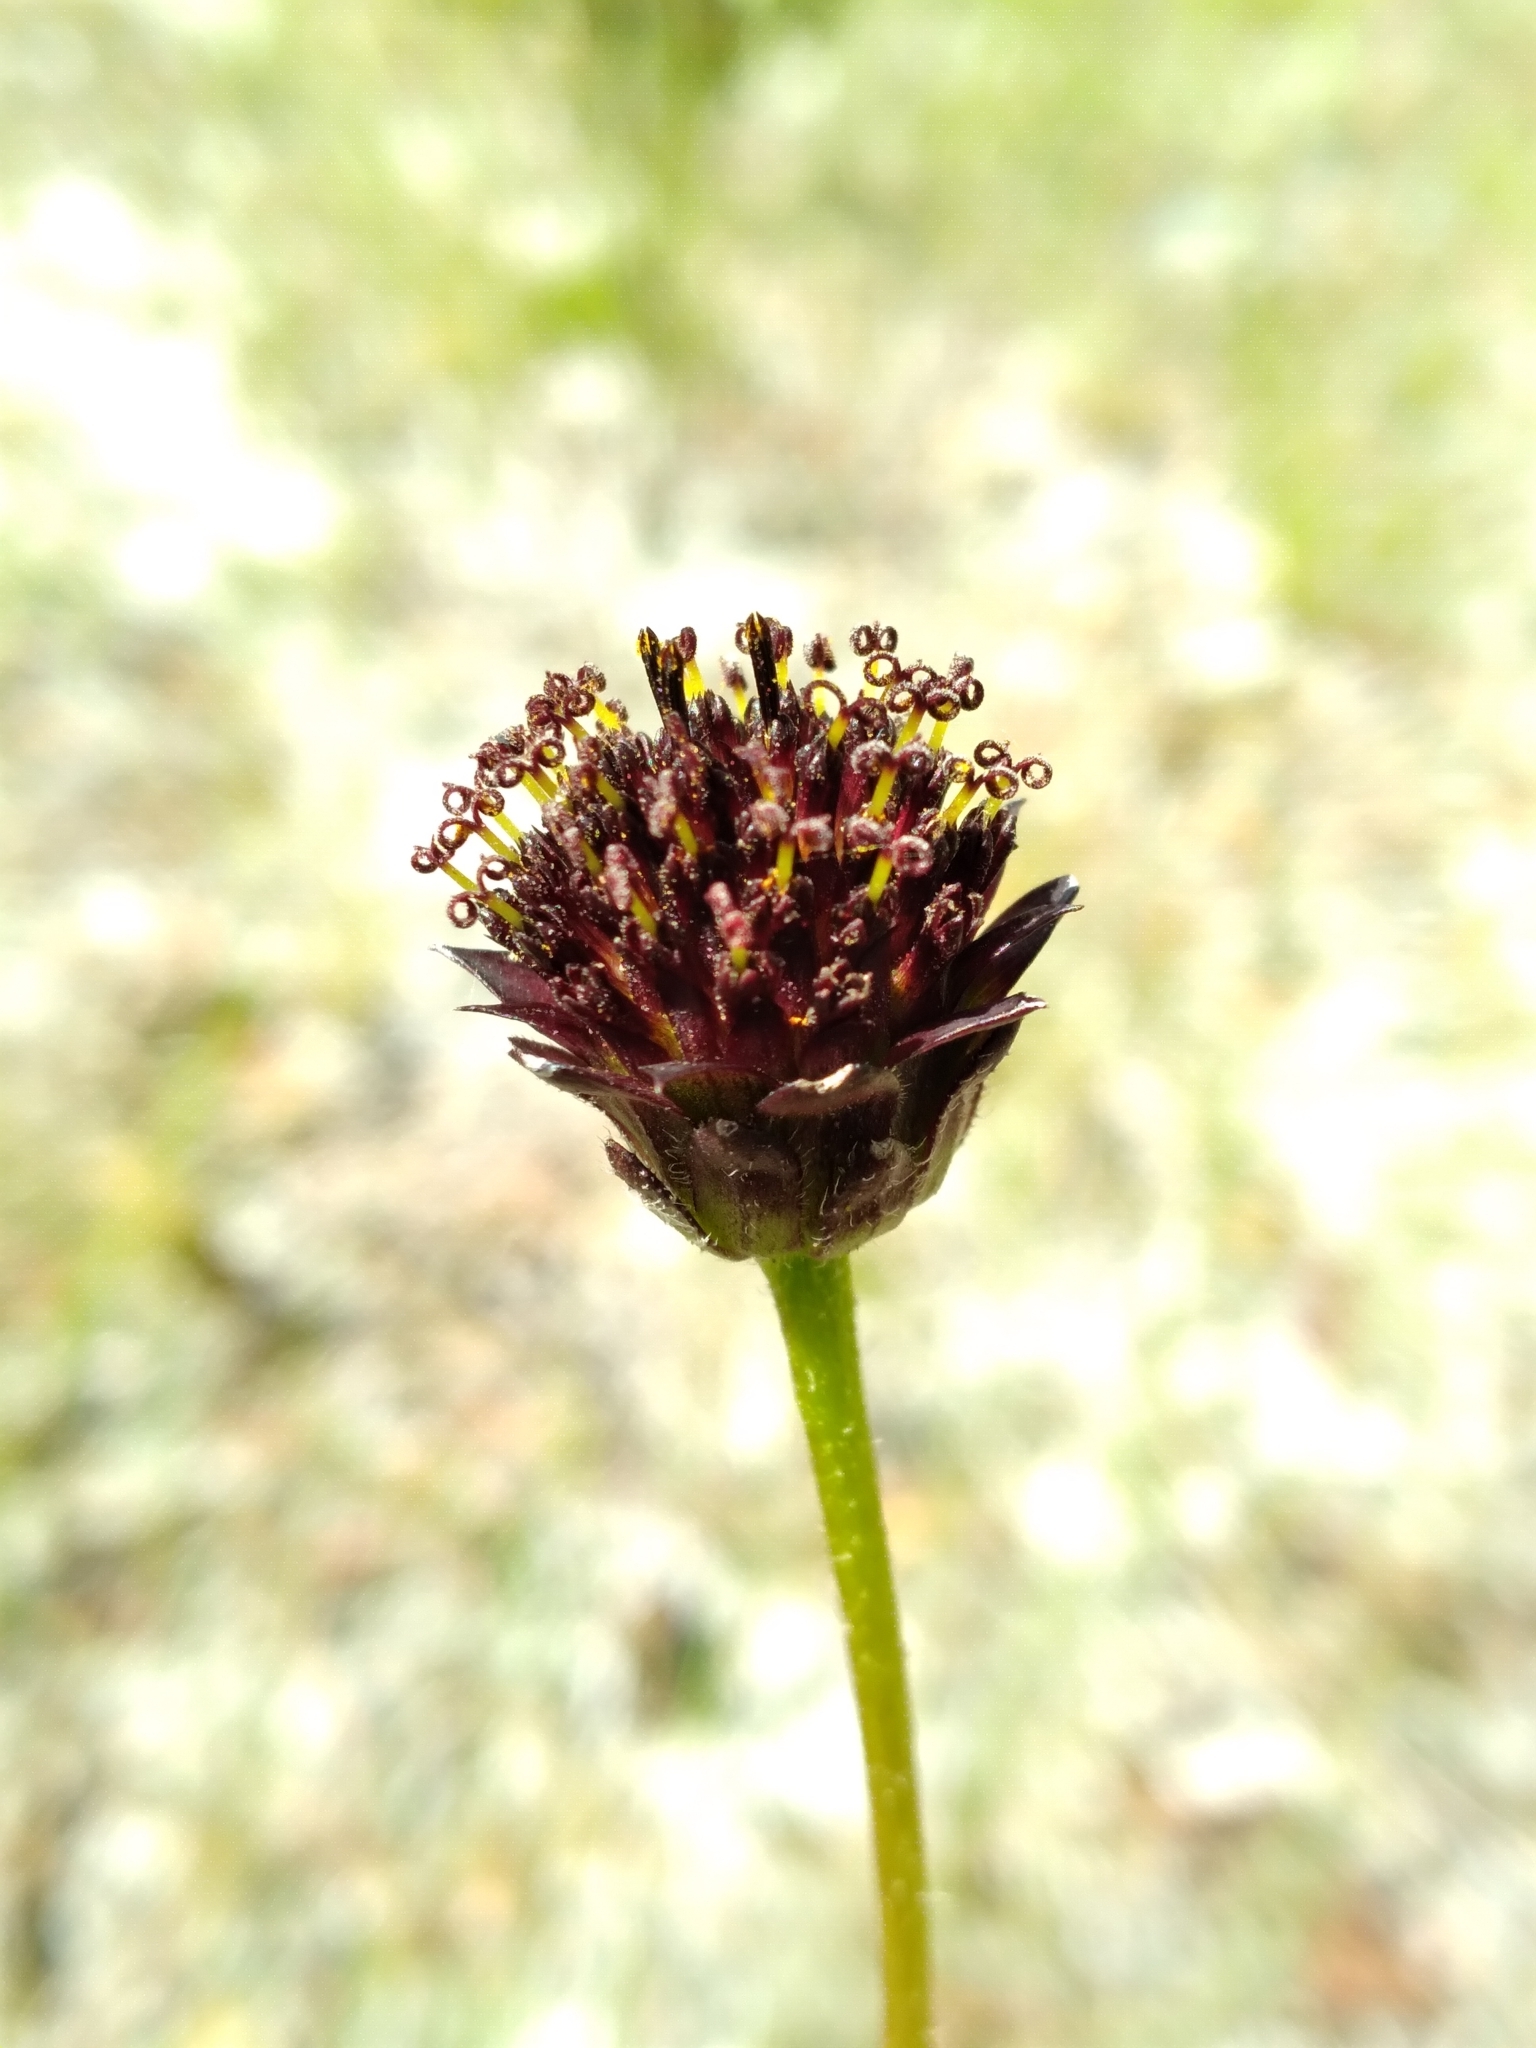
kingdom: Plantae
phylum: Tracheophyta
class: Magnoliopsida
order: Asterales
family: Asteraceae
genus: Helianthus
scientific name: Helianthus radula
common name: Pineland sunflower
